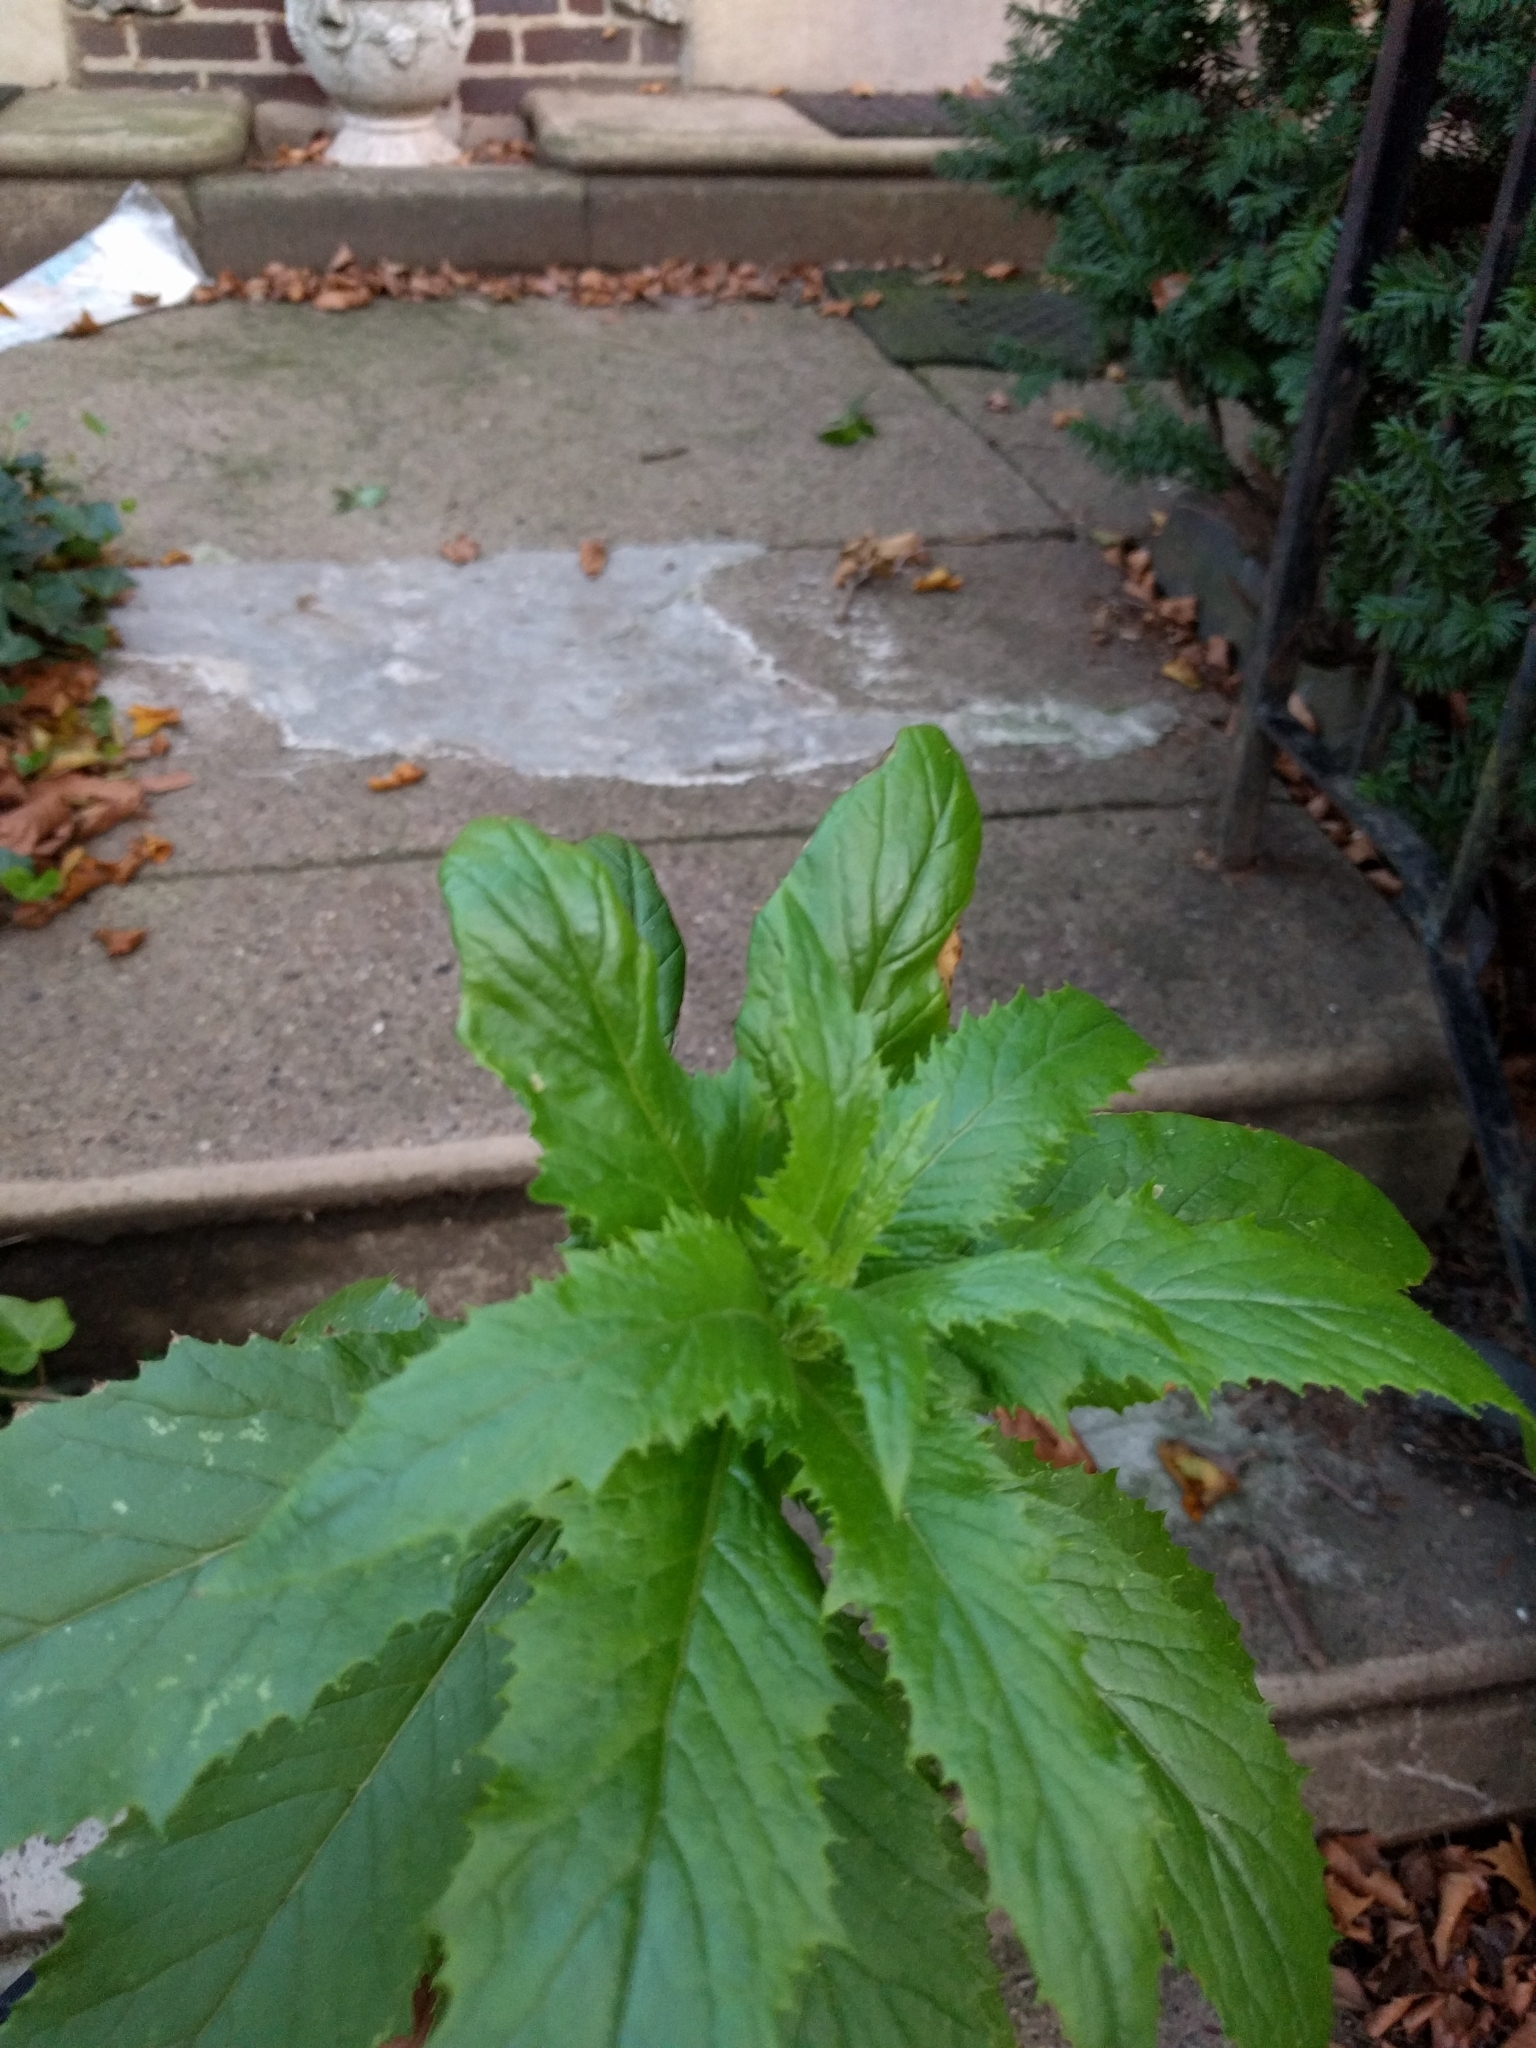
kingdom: Plantae
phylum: Tracheophyta
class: Magnoliopsida
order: Asterales
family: Asteraceae
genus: Erechtites
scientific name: Erechtites hieraciifolius
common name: American burnweed
